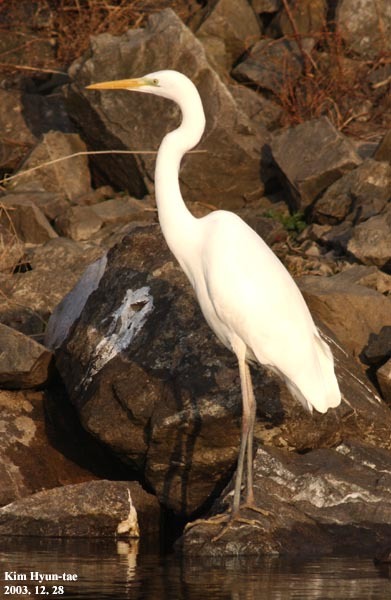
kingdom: Animalia
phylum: Chordata
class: Aves
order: Pelecaniformes
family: Ardeidae
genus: Ardea
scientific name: Ardea alba
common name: Great egret
